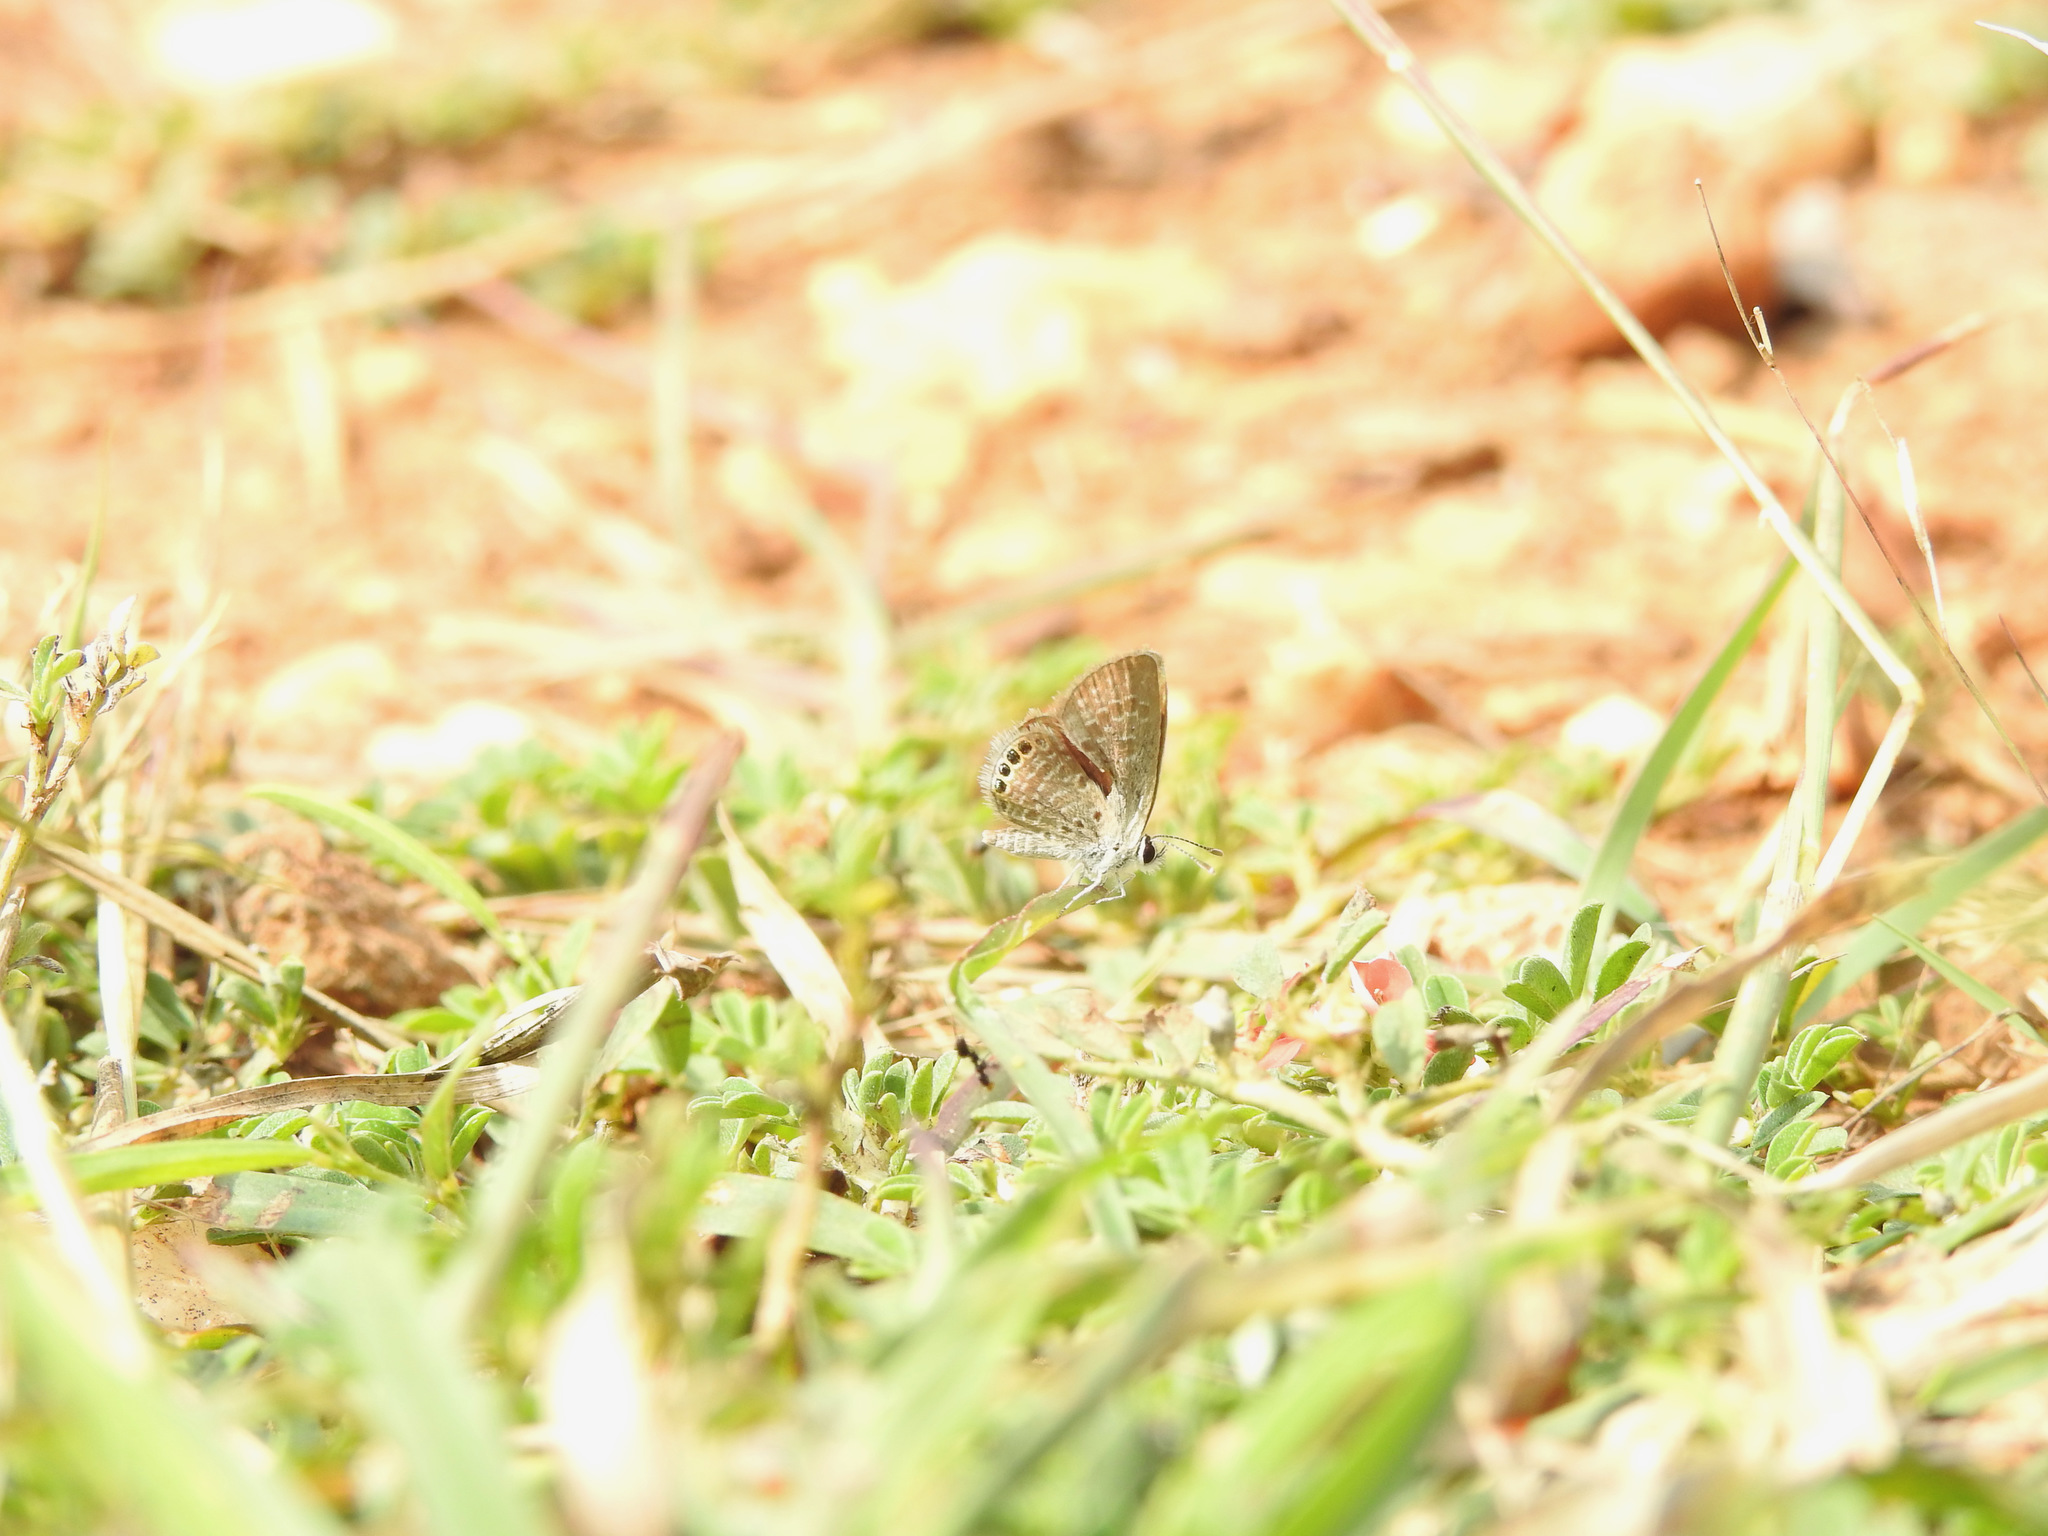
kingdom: Animalia
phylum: Arthropoda
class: Insecta
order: Lepidoptera
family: Lycaenidae
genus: Freyeria
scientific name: Freyeria putli
